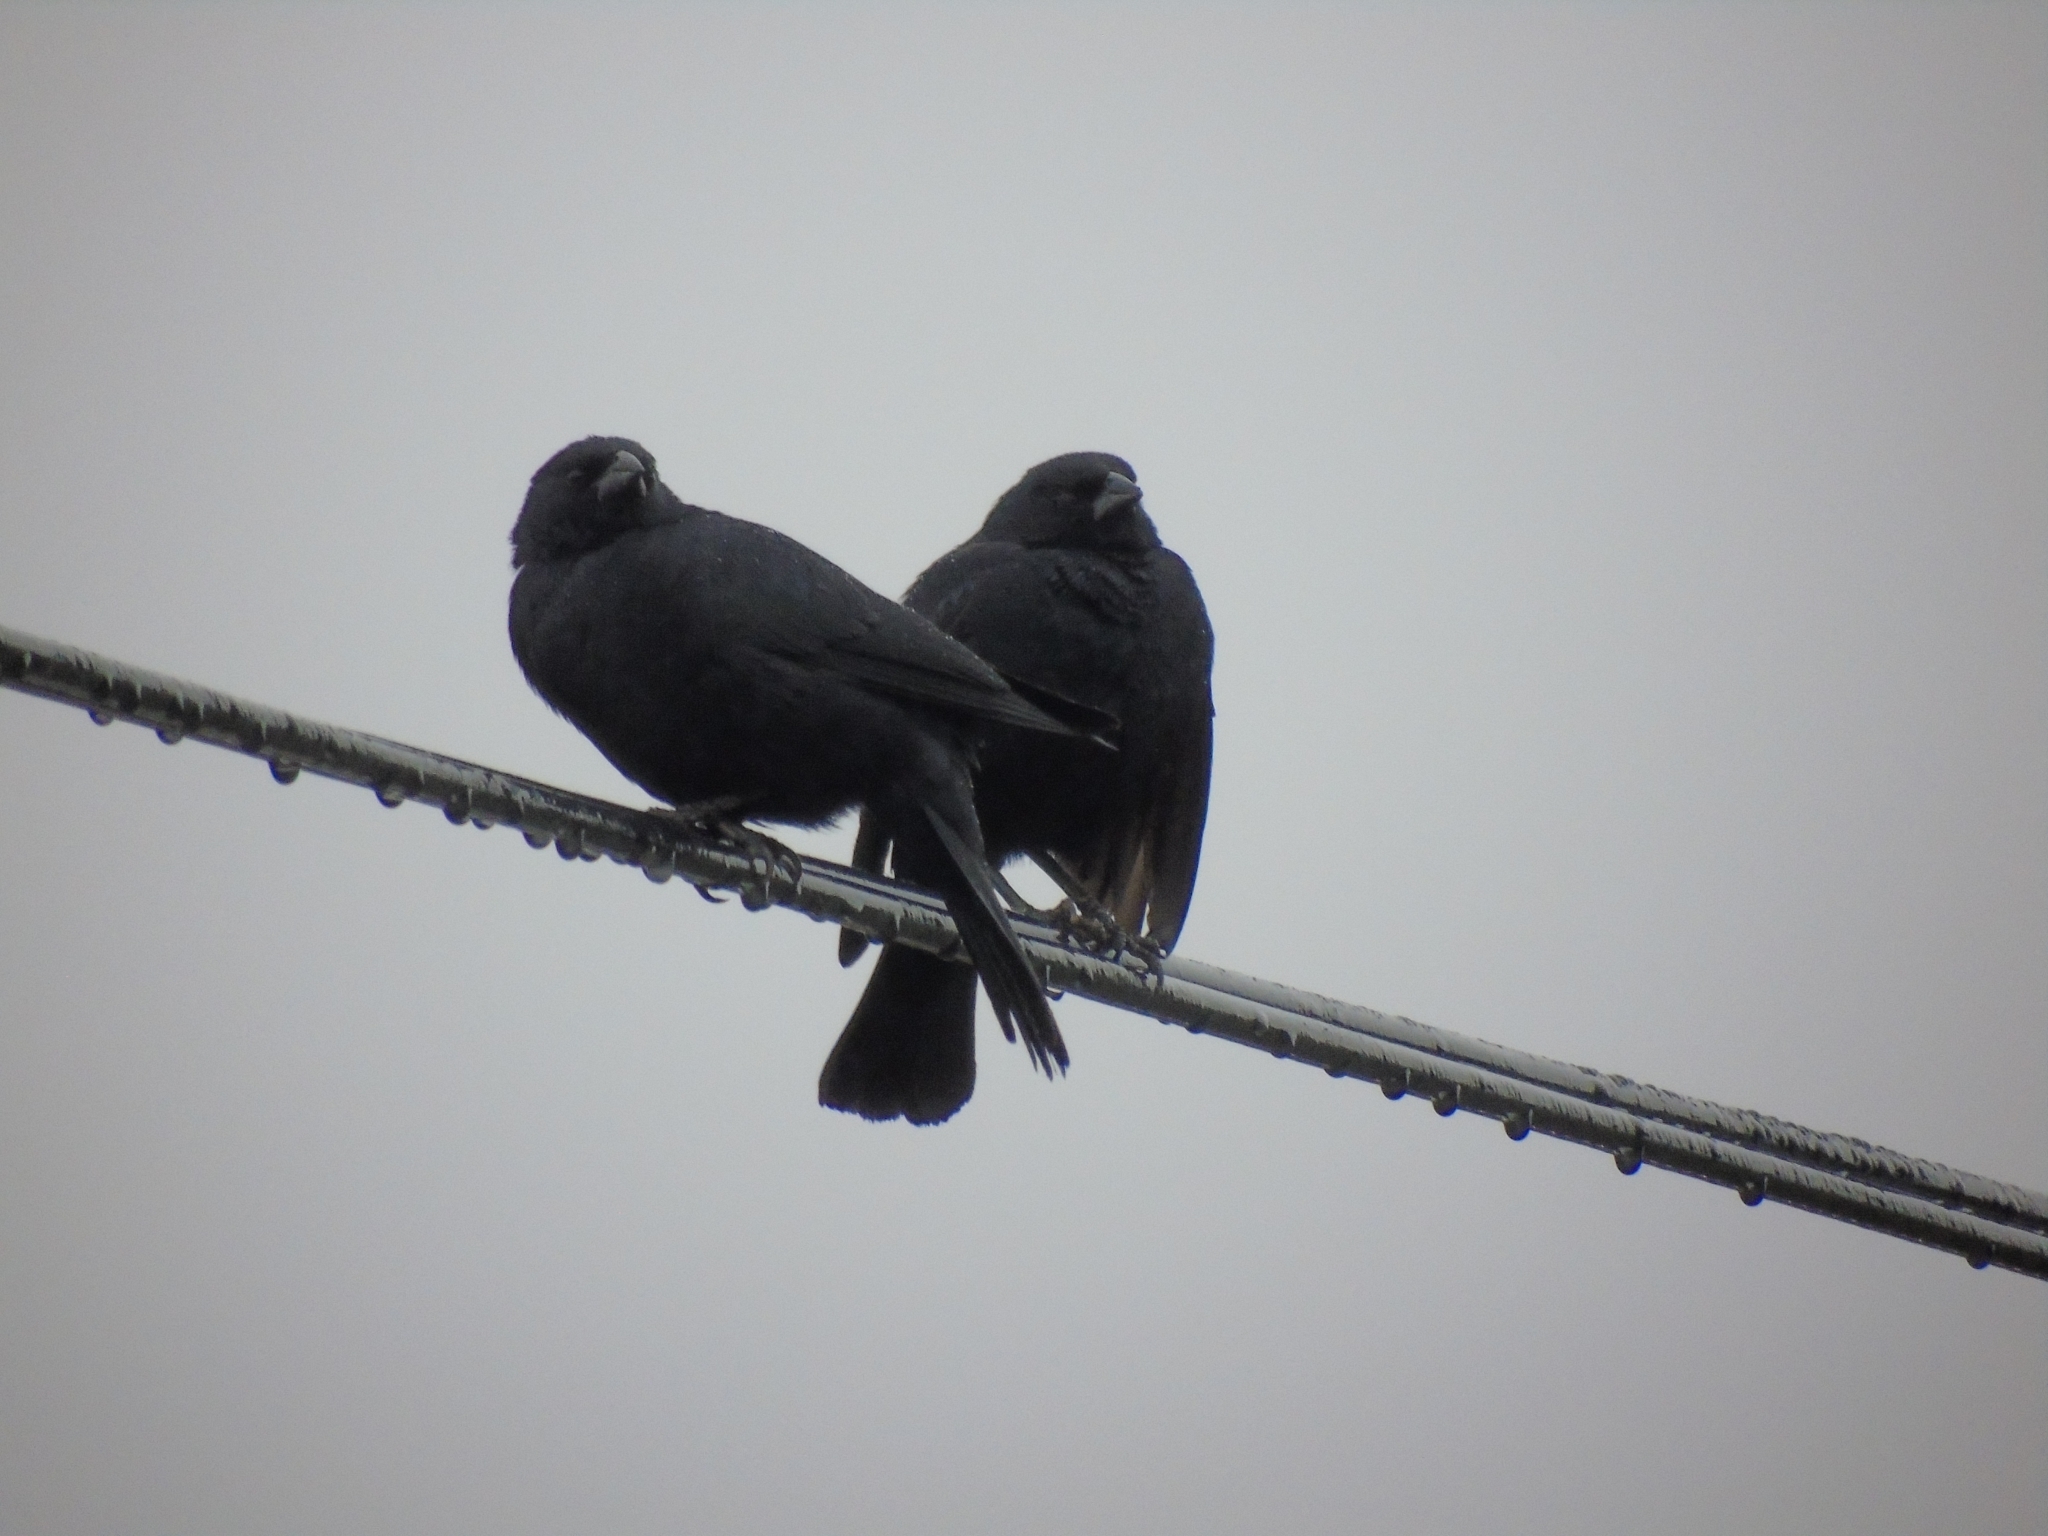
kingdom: Animalia
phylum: Chordata
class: Aves
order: Passeriformes
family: Icteridae
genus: Molothrus
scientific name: Molothrus rufoaxillaris
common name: Screaming cowbird
